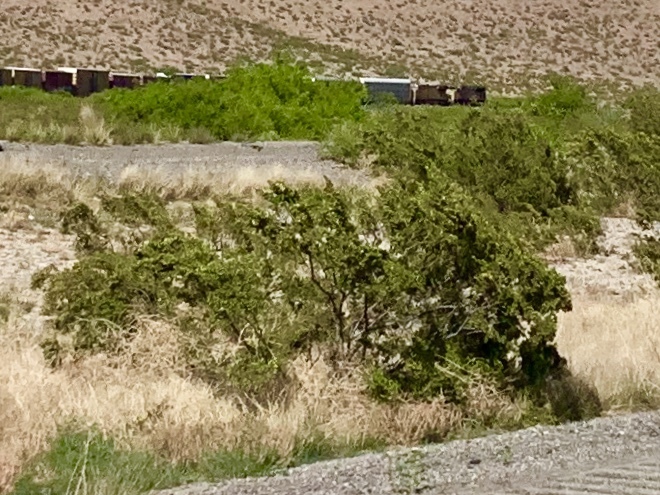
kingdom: Plantae
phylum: Tracheophyta
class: Magnoliopsida
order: Zygophyllales
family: Zygophyllaceae
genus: Larrea
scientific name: Larrea tridentata
